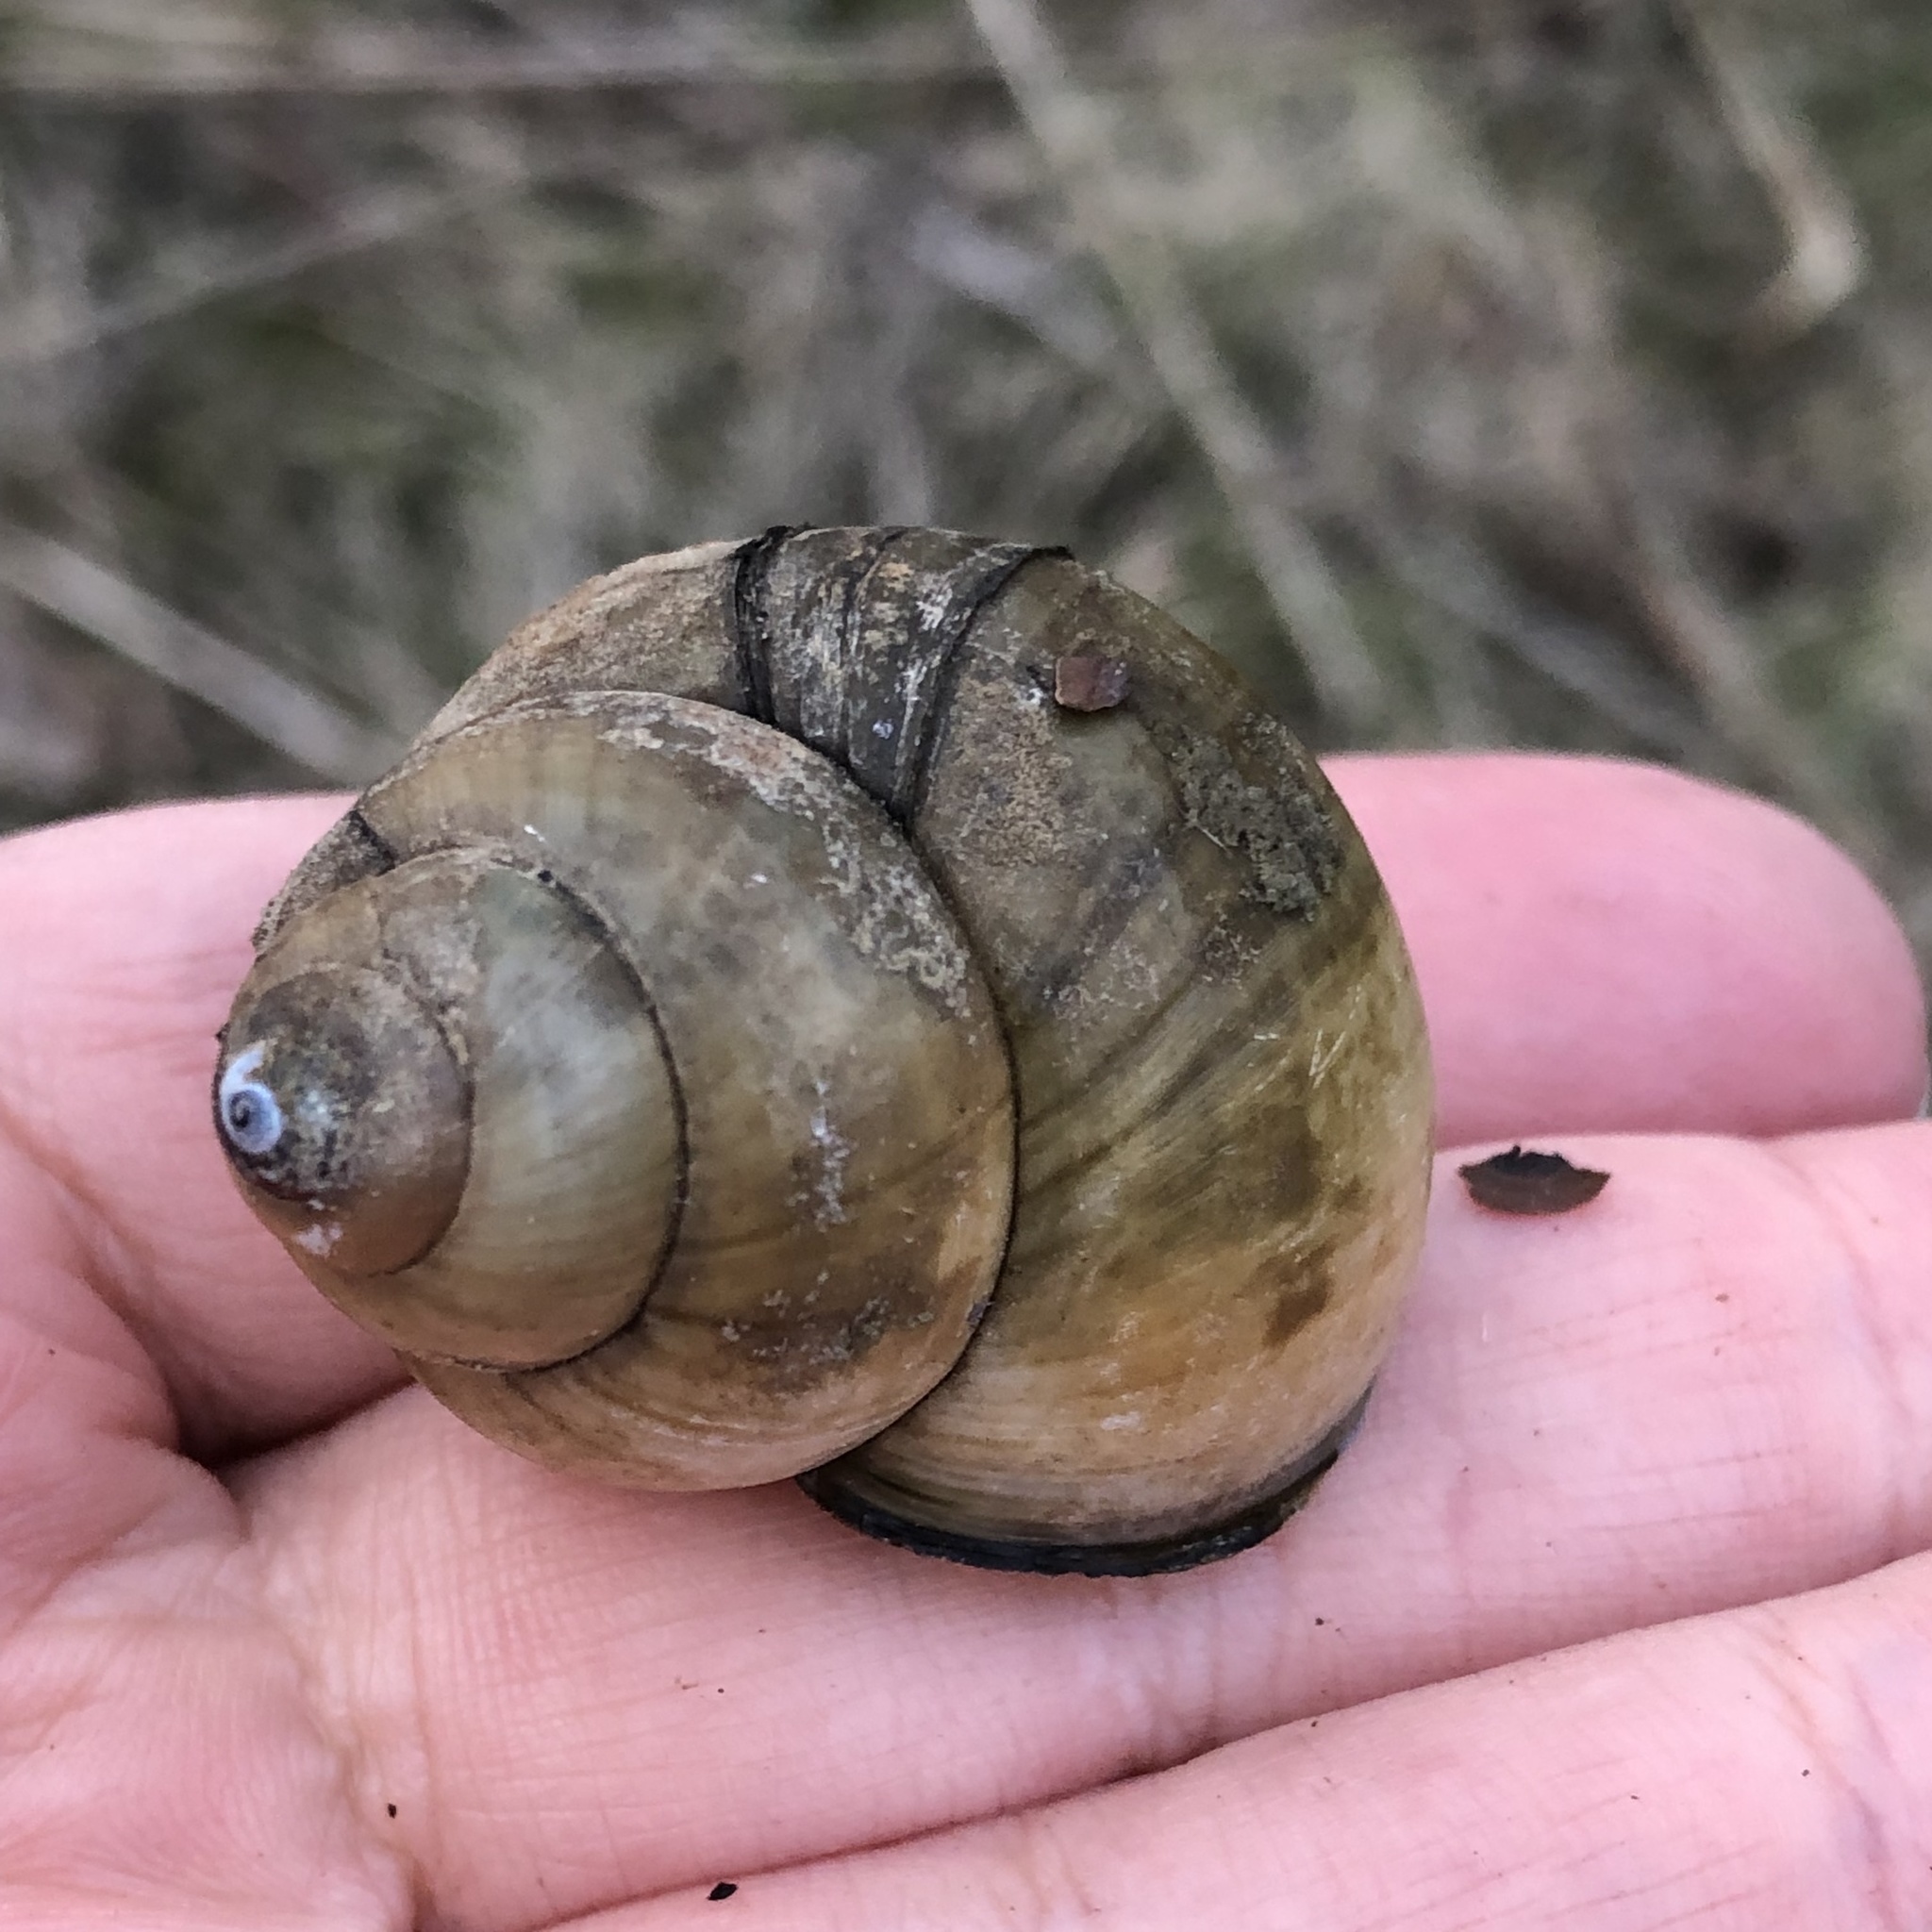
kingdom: Animalia
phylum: Mollusca
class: Gastropoda
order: Architaenioglossa
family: Viviparidae
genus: Cipangopaludina
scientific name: Cipangopaludina chinensis
